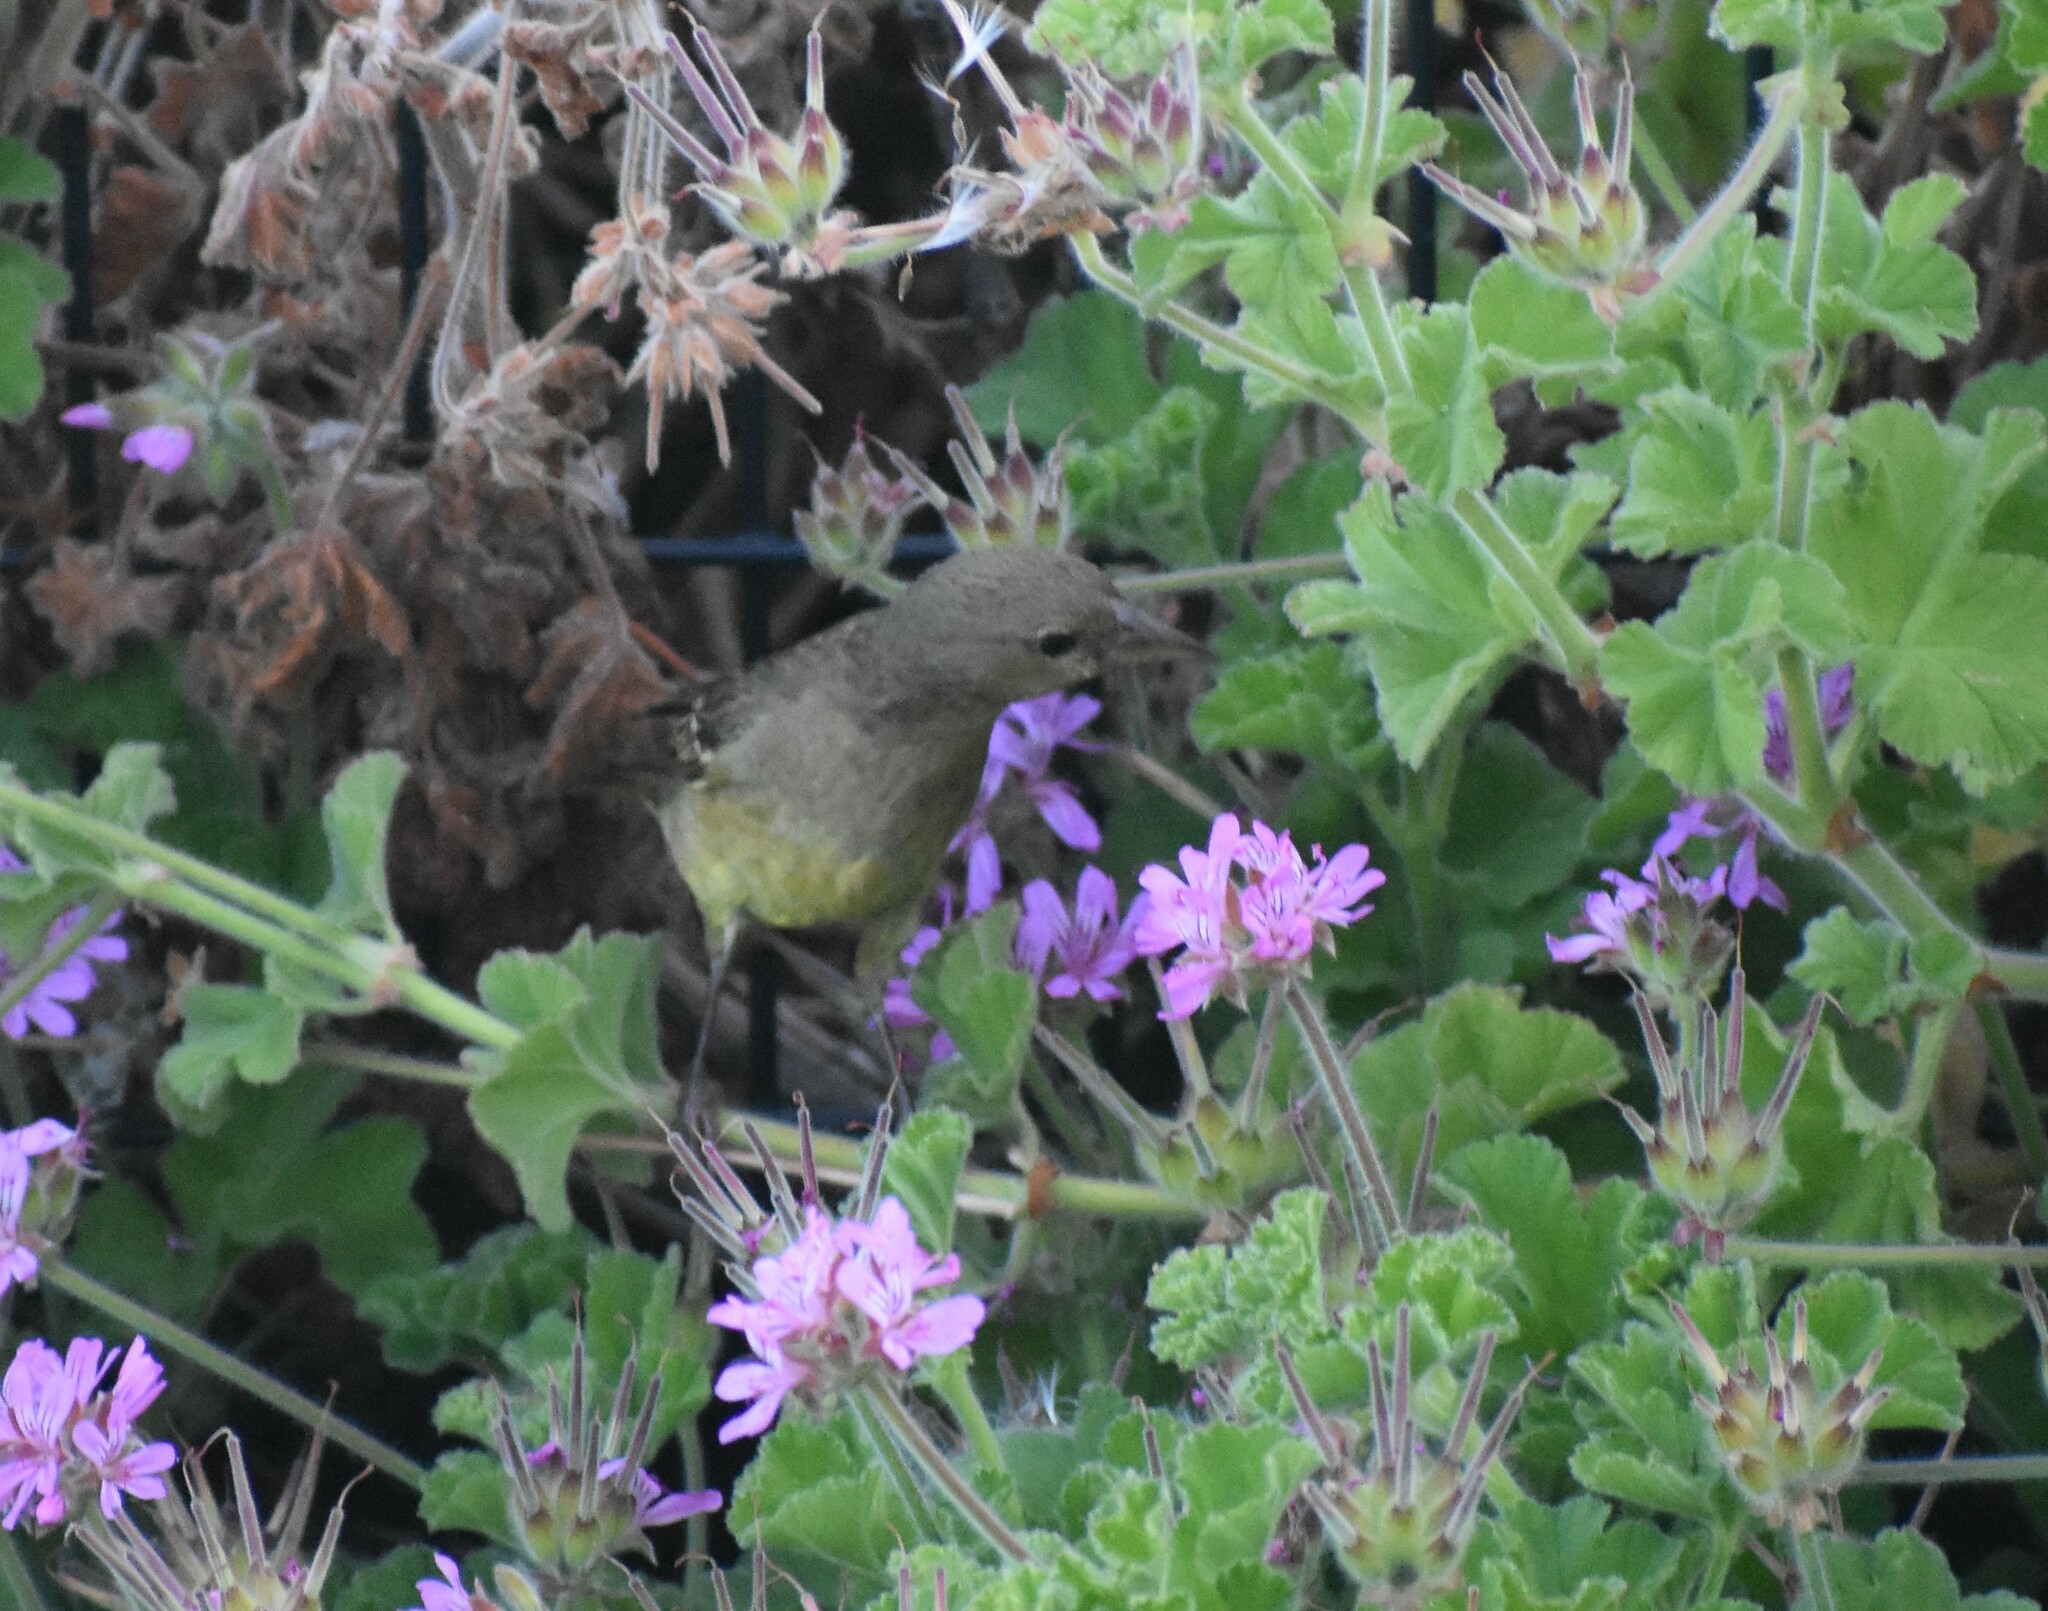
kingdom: Animalia
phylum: Chordata
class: Aves
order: Passeriformes
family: Ploceidae
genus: Ploceus
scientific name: Ploceus capensis
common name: Cape weaver
